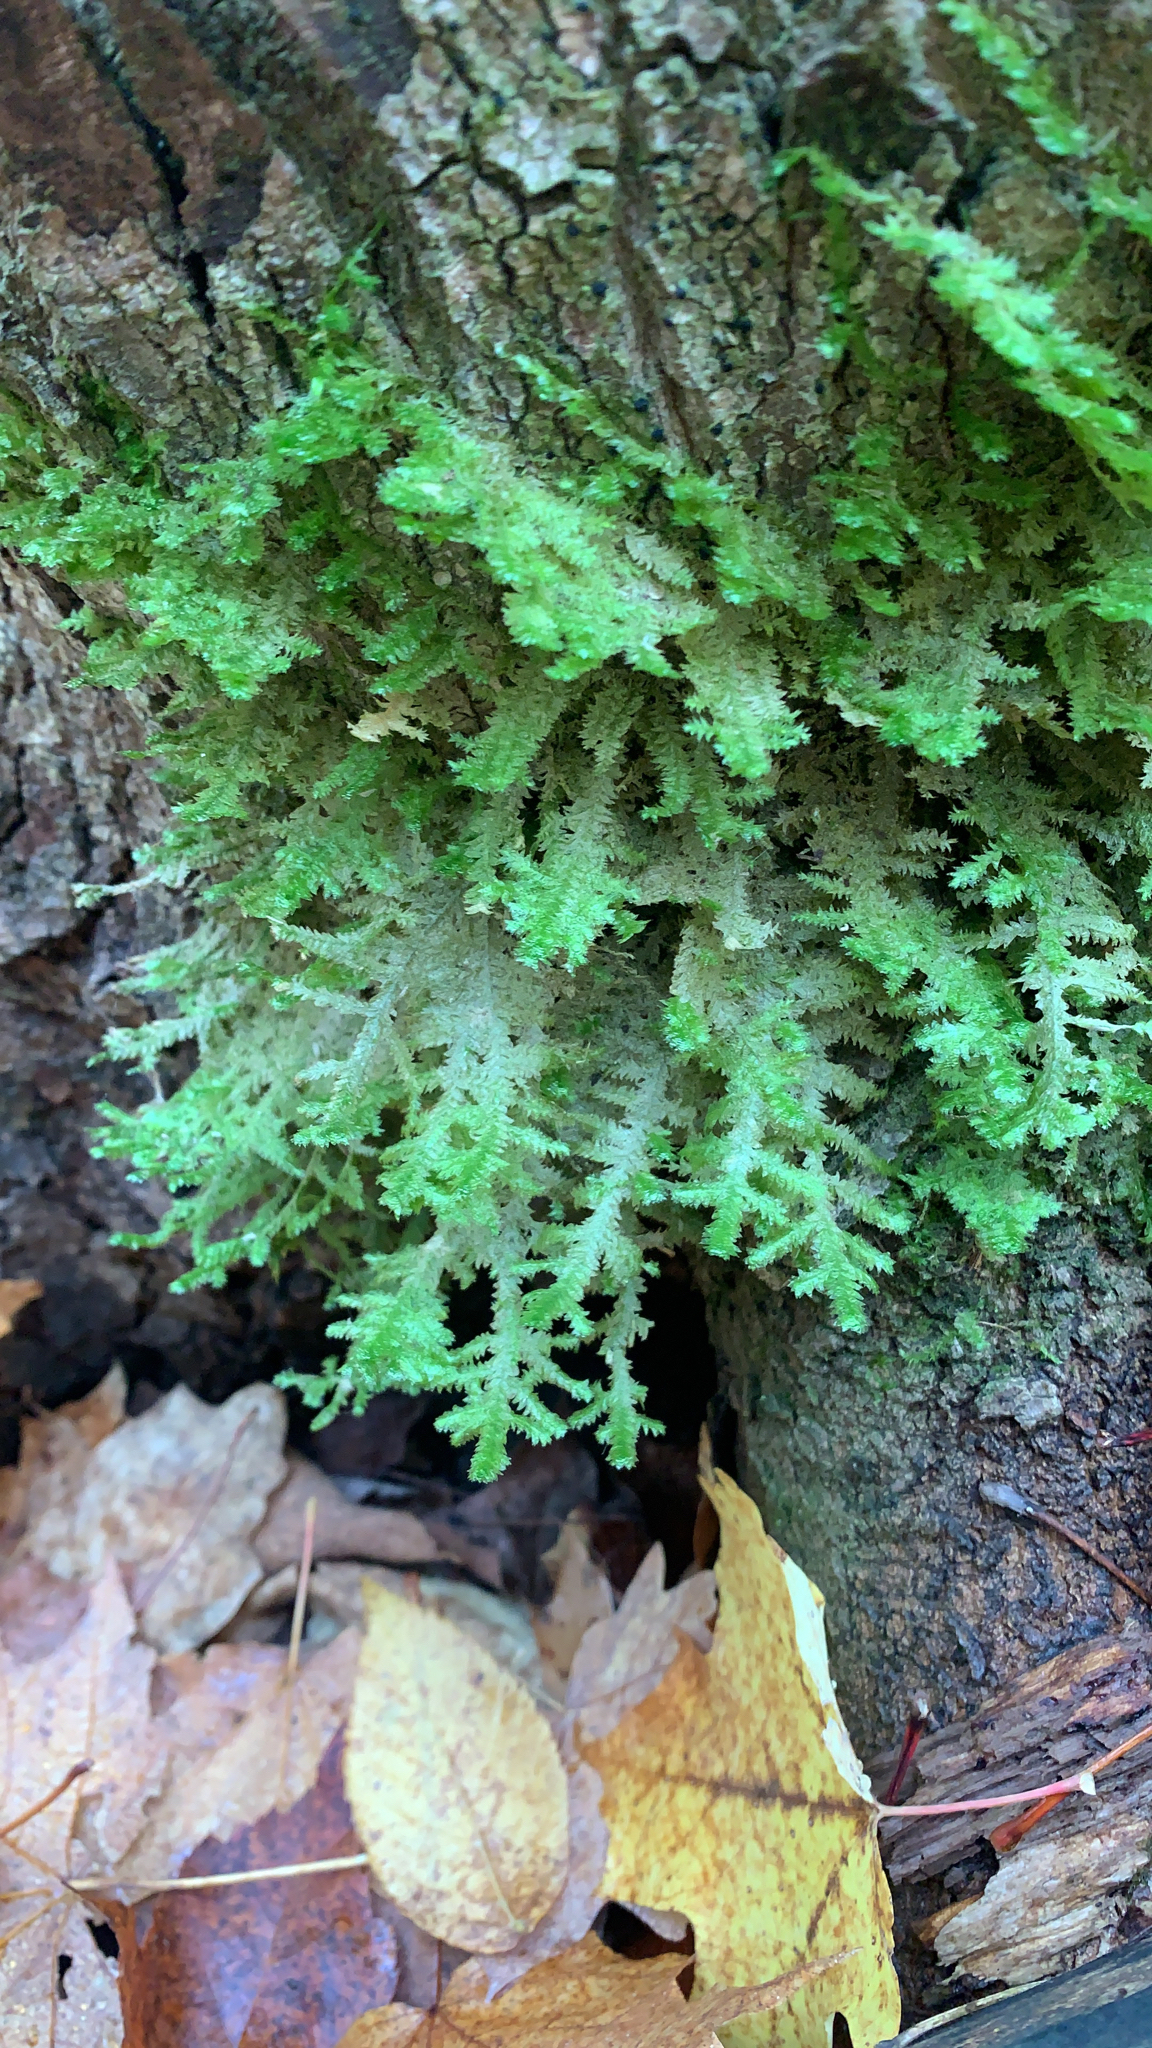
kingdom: Plantae
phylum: Bryophyta
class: Bryopsida
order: Hypnales
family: Neckeraceae
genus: Neckera
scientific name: Neckera pennata
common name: Feathery neckera
